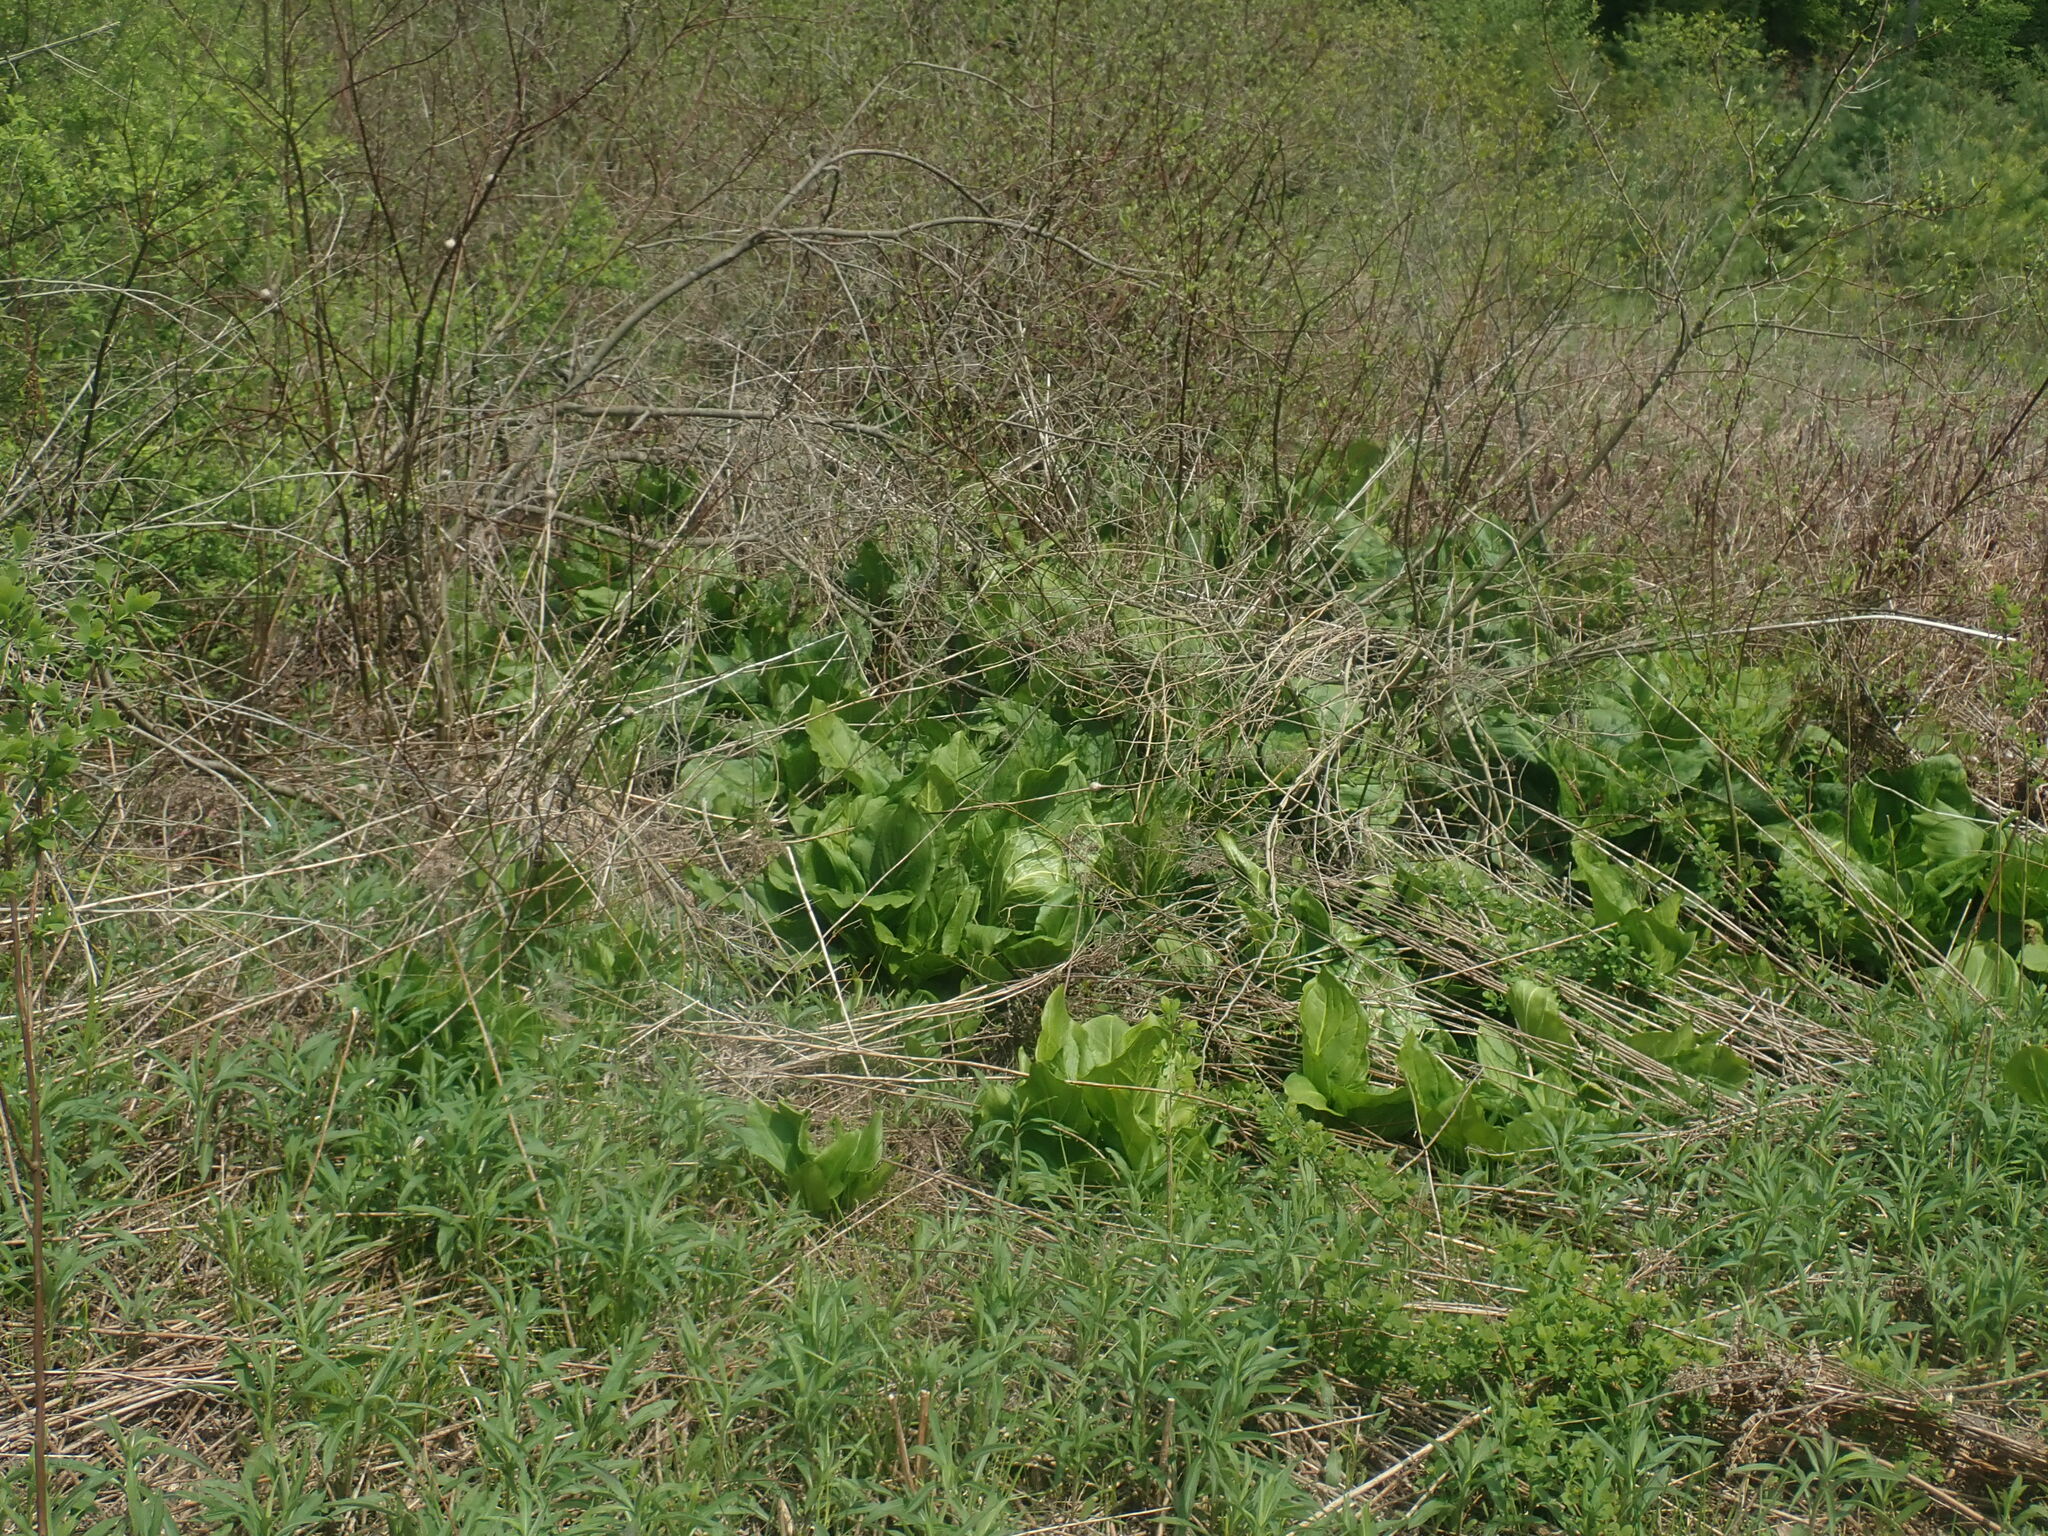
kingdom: Plantae
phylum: Tracheophyta
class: Liliopsida
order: Alismatales
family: Araceae
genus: Symplocarpus
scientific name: Symplocarpus foetidus
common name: Eastern skunk cabbage
